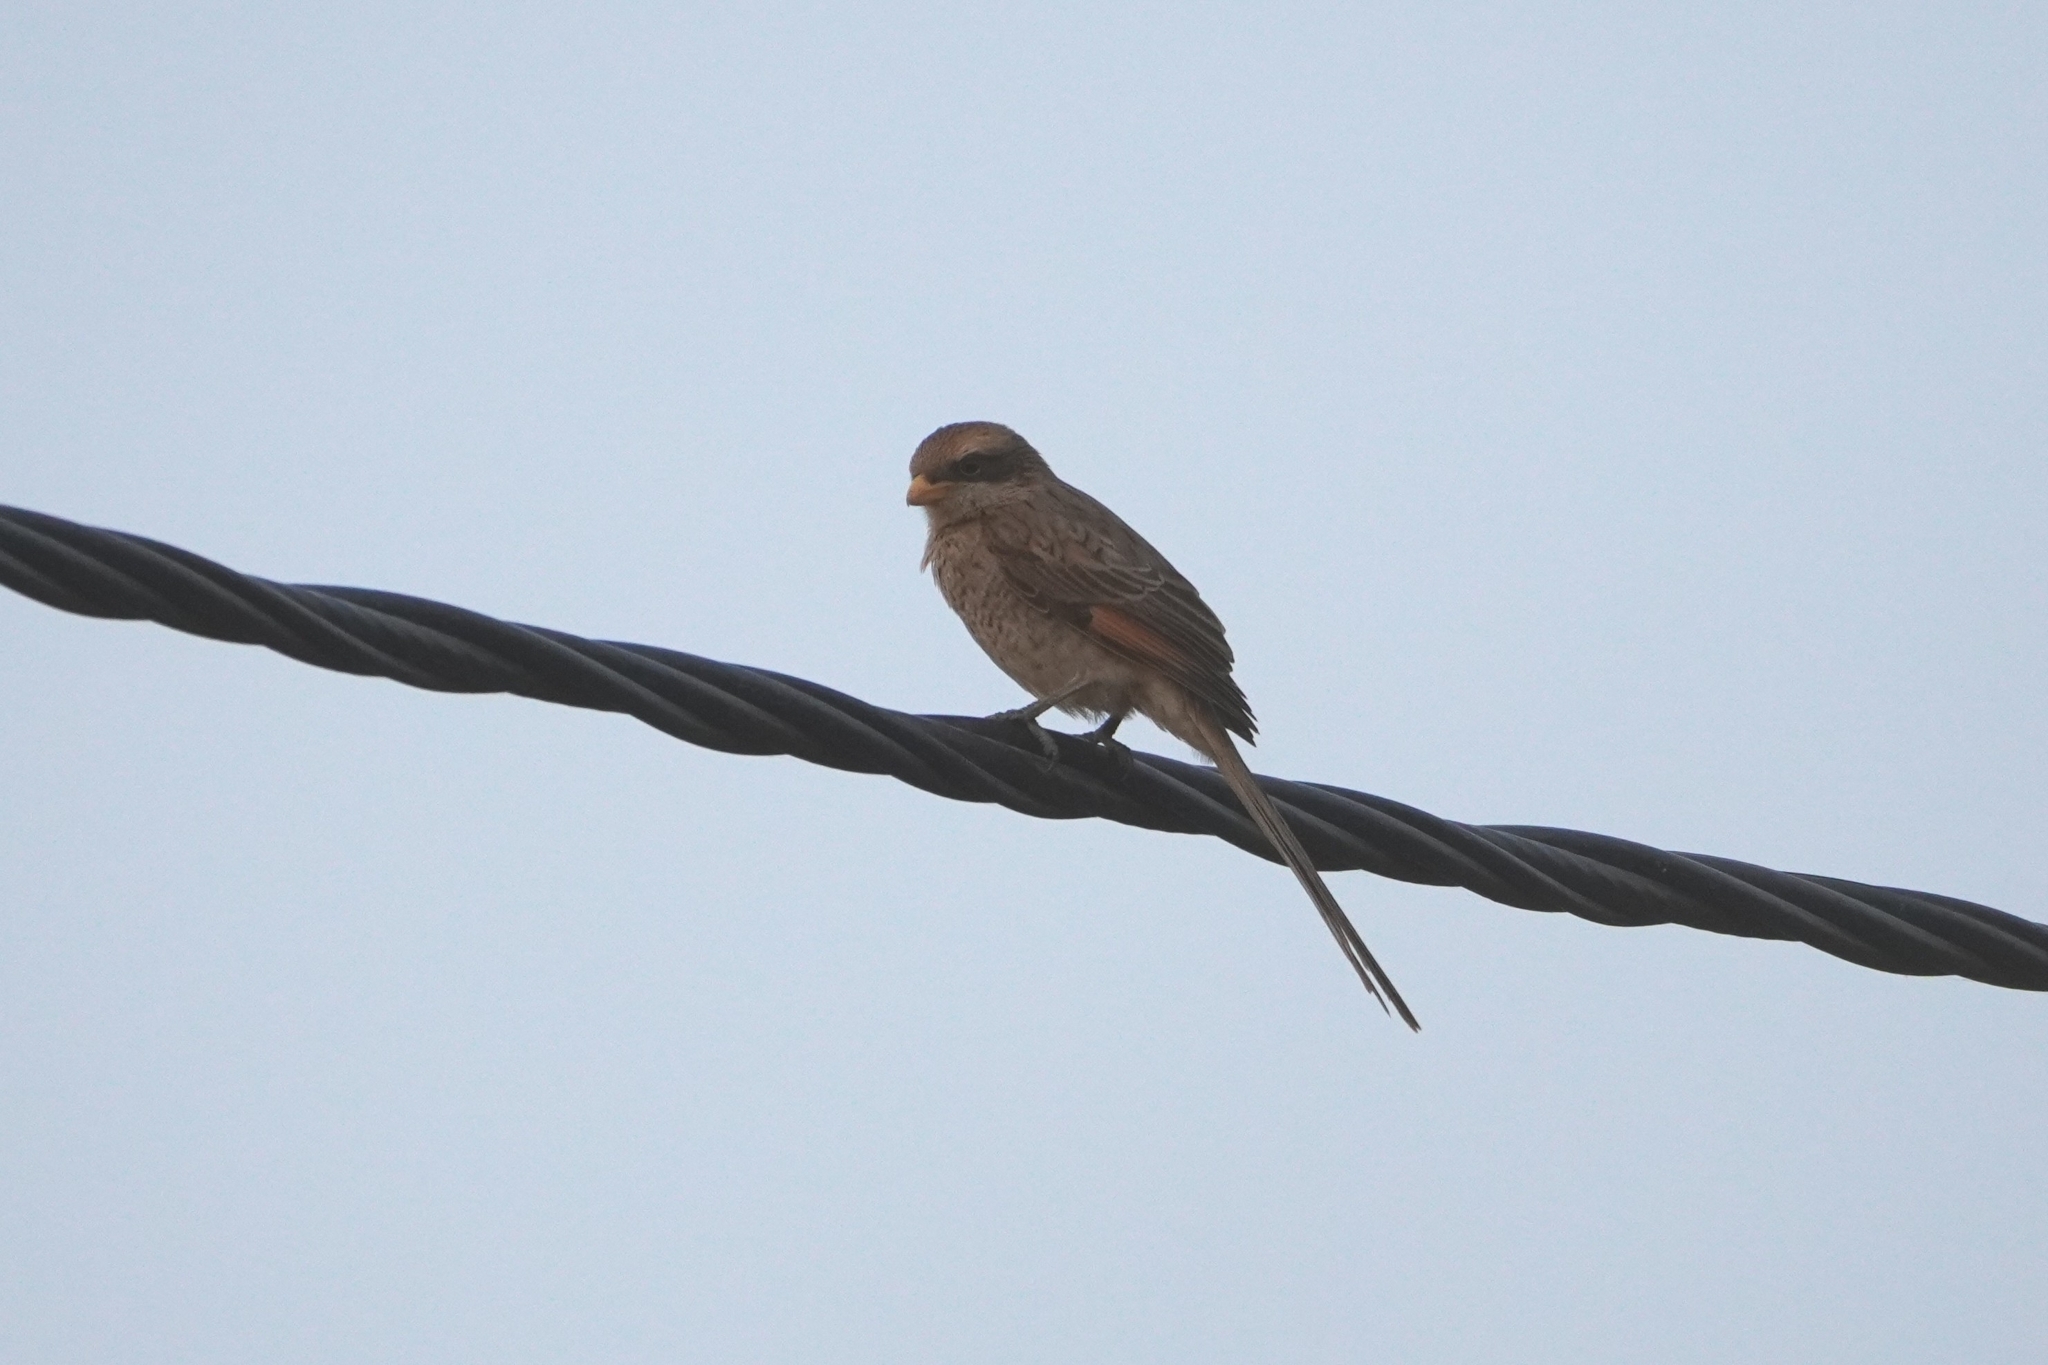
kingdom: Animalia
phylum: Chordata
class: Aves
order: Passeriformes
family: Laniidae
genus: Corvinella
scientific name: Corvinella corvina
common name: Yellow-billed shrike
